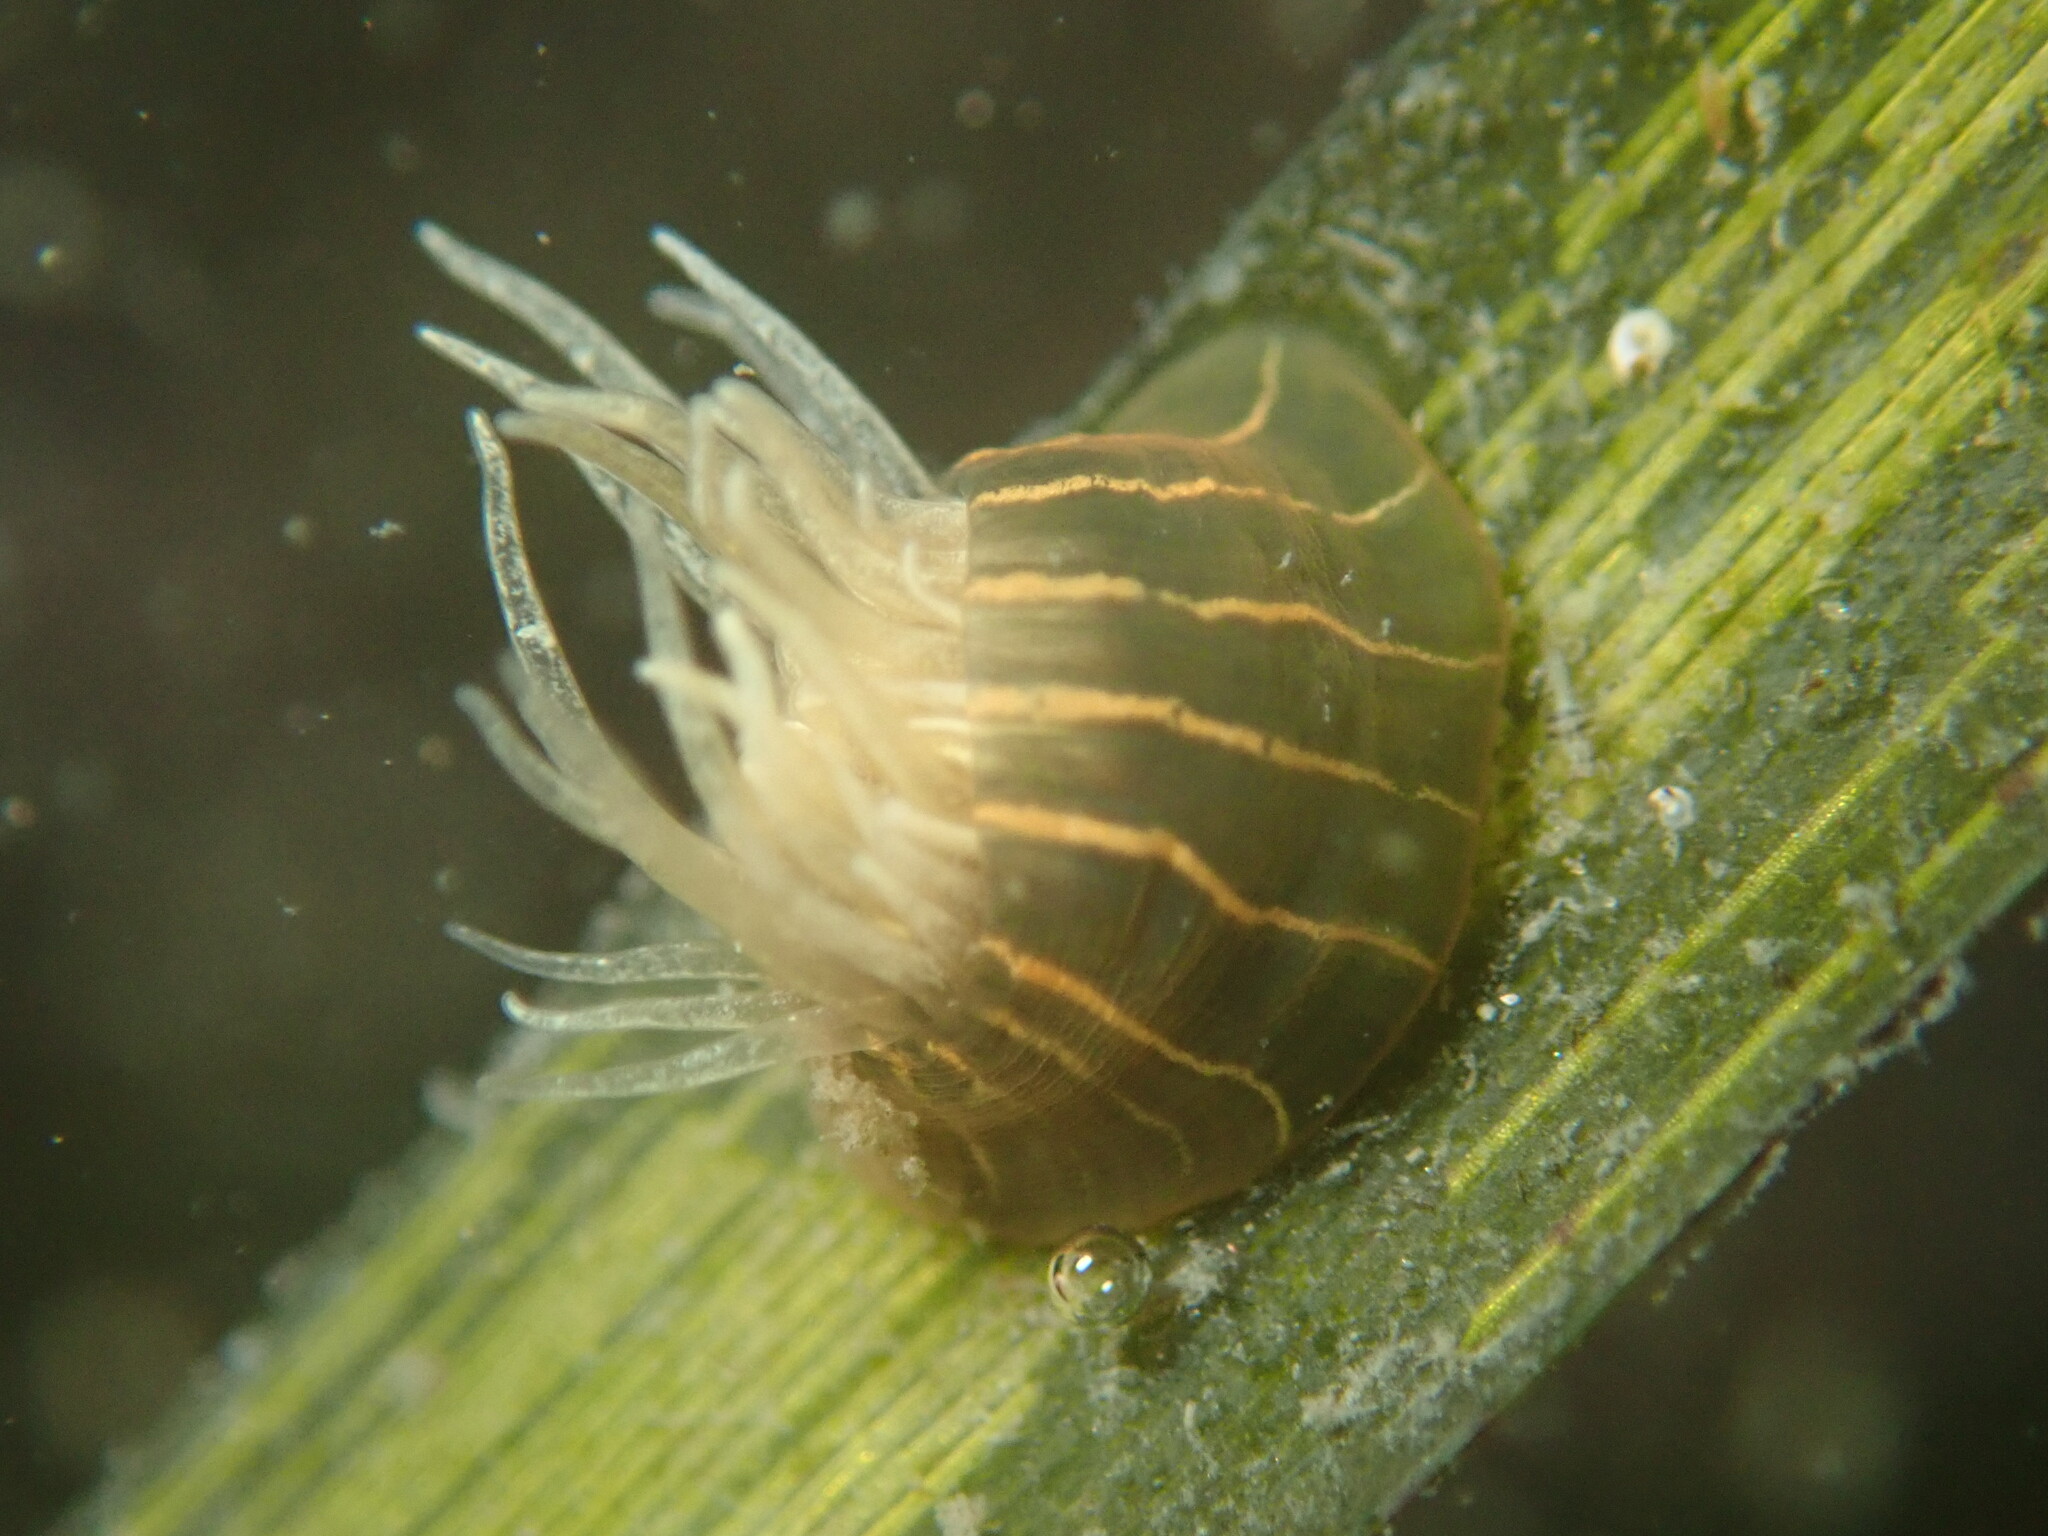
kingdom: Animalia
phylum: Cnidaria
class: Anthozoa
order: Actiniaria
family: Diadumenidae
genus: Diadumene
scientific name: Diadumene lineata
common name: Orange-striped anemone
